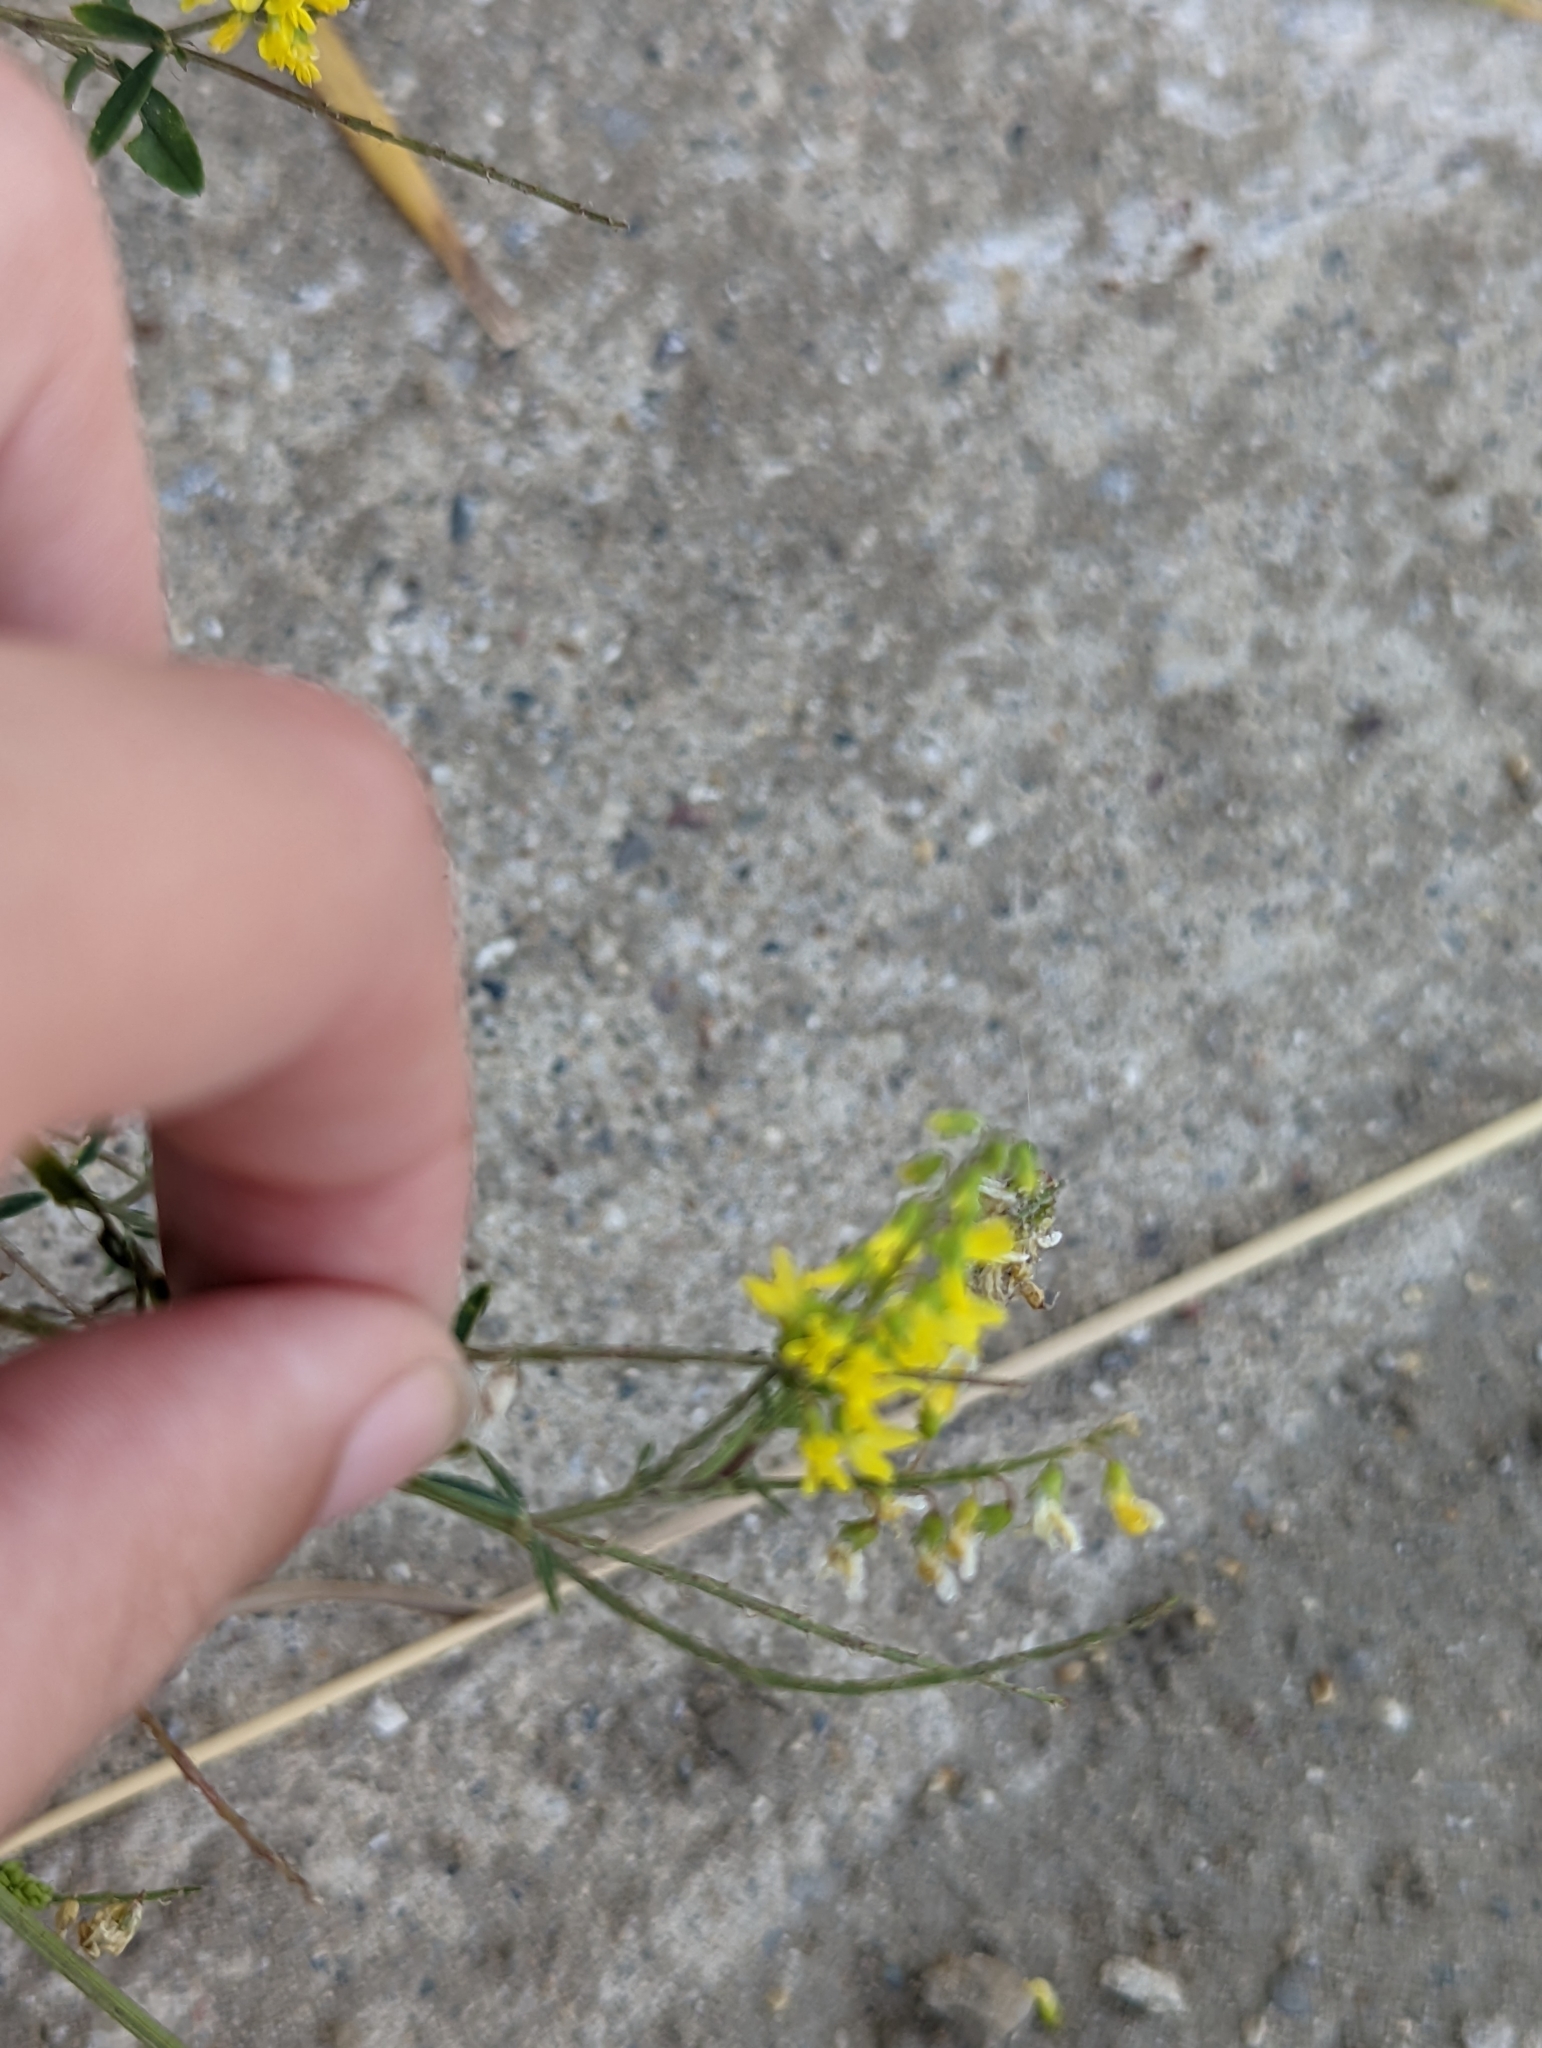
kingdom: Plantae
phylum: Tracheophyta
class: Magnoliopsida
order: Fabales
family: Fabaceae
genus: Melilotus
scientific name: Melilotus officinalis
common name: Sweetclover
